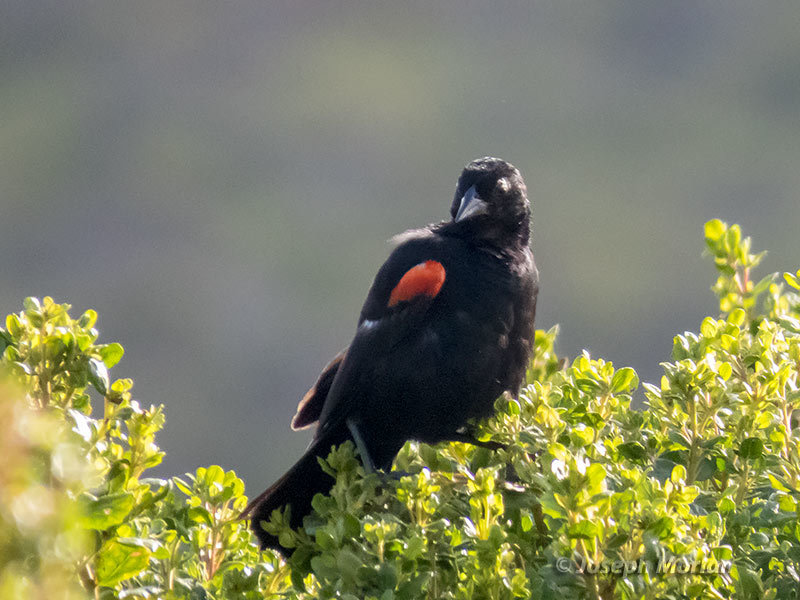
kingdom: Animalia
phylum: Chordata
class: Aves
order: Passeriformes
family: Icteridae
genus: Agelaius
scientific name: Agelaius phoeniceus
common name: Red-winged blackbird
